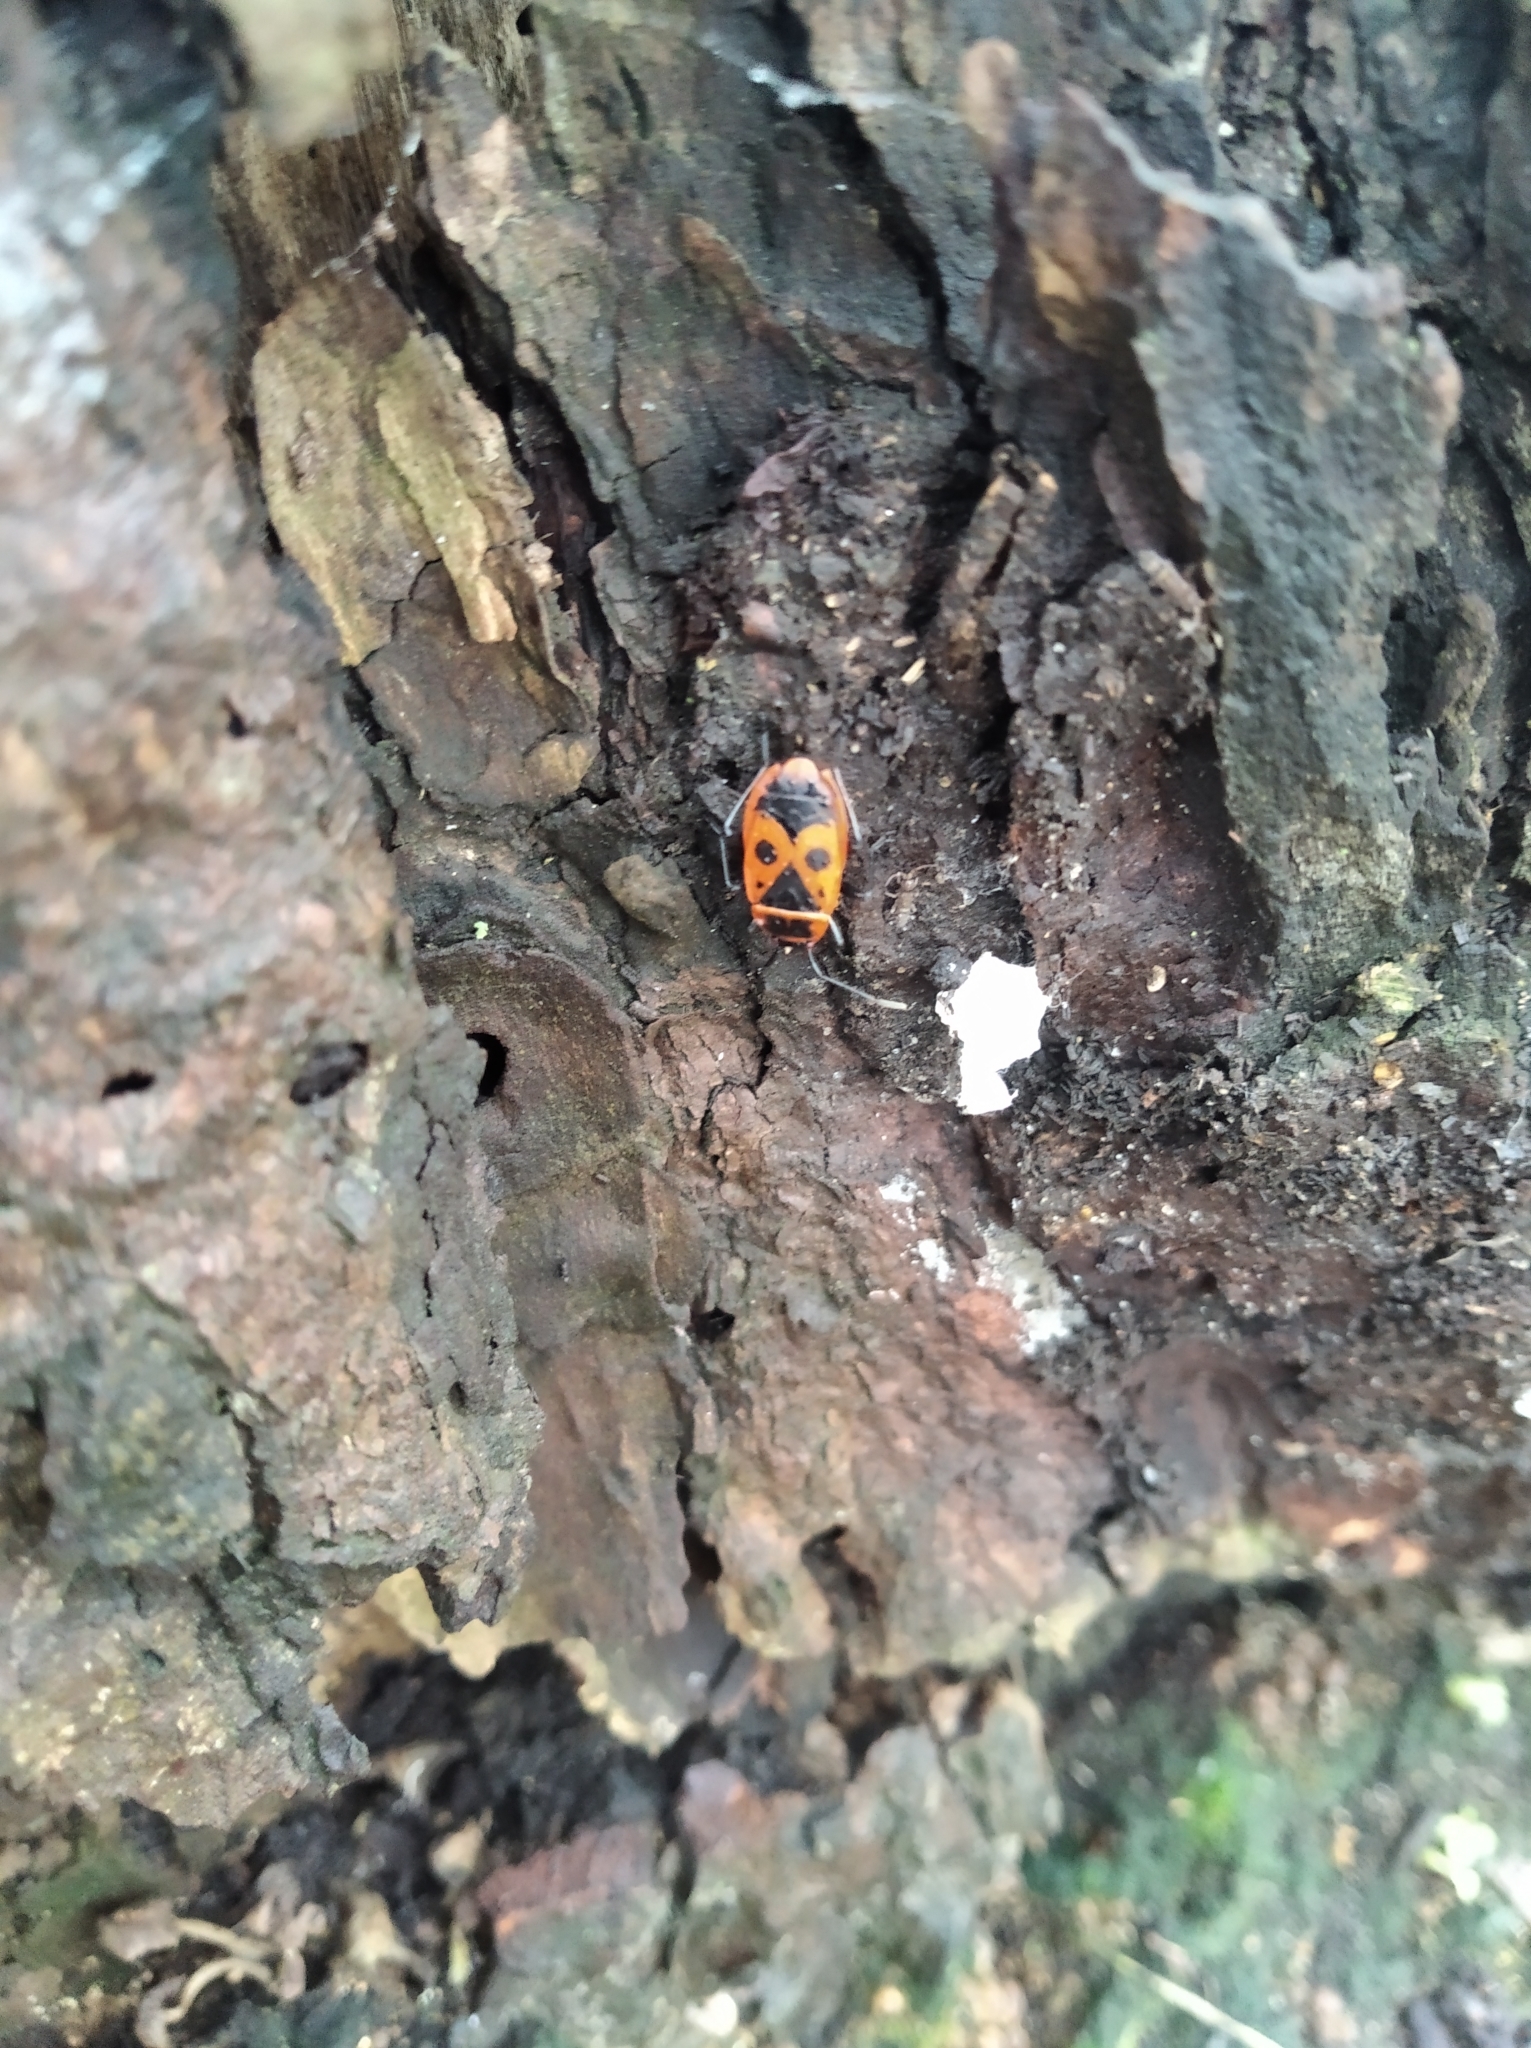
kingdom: Animalia
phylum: Arthropoda
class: Insecta
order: Hemiptera
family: Pyrrhocoridae
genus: Pyrrhocoris
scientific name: Pyrrhocoris apterus
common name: Firebug
